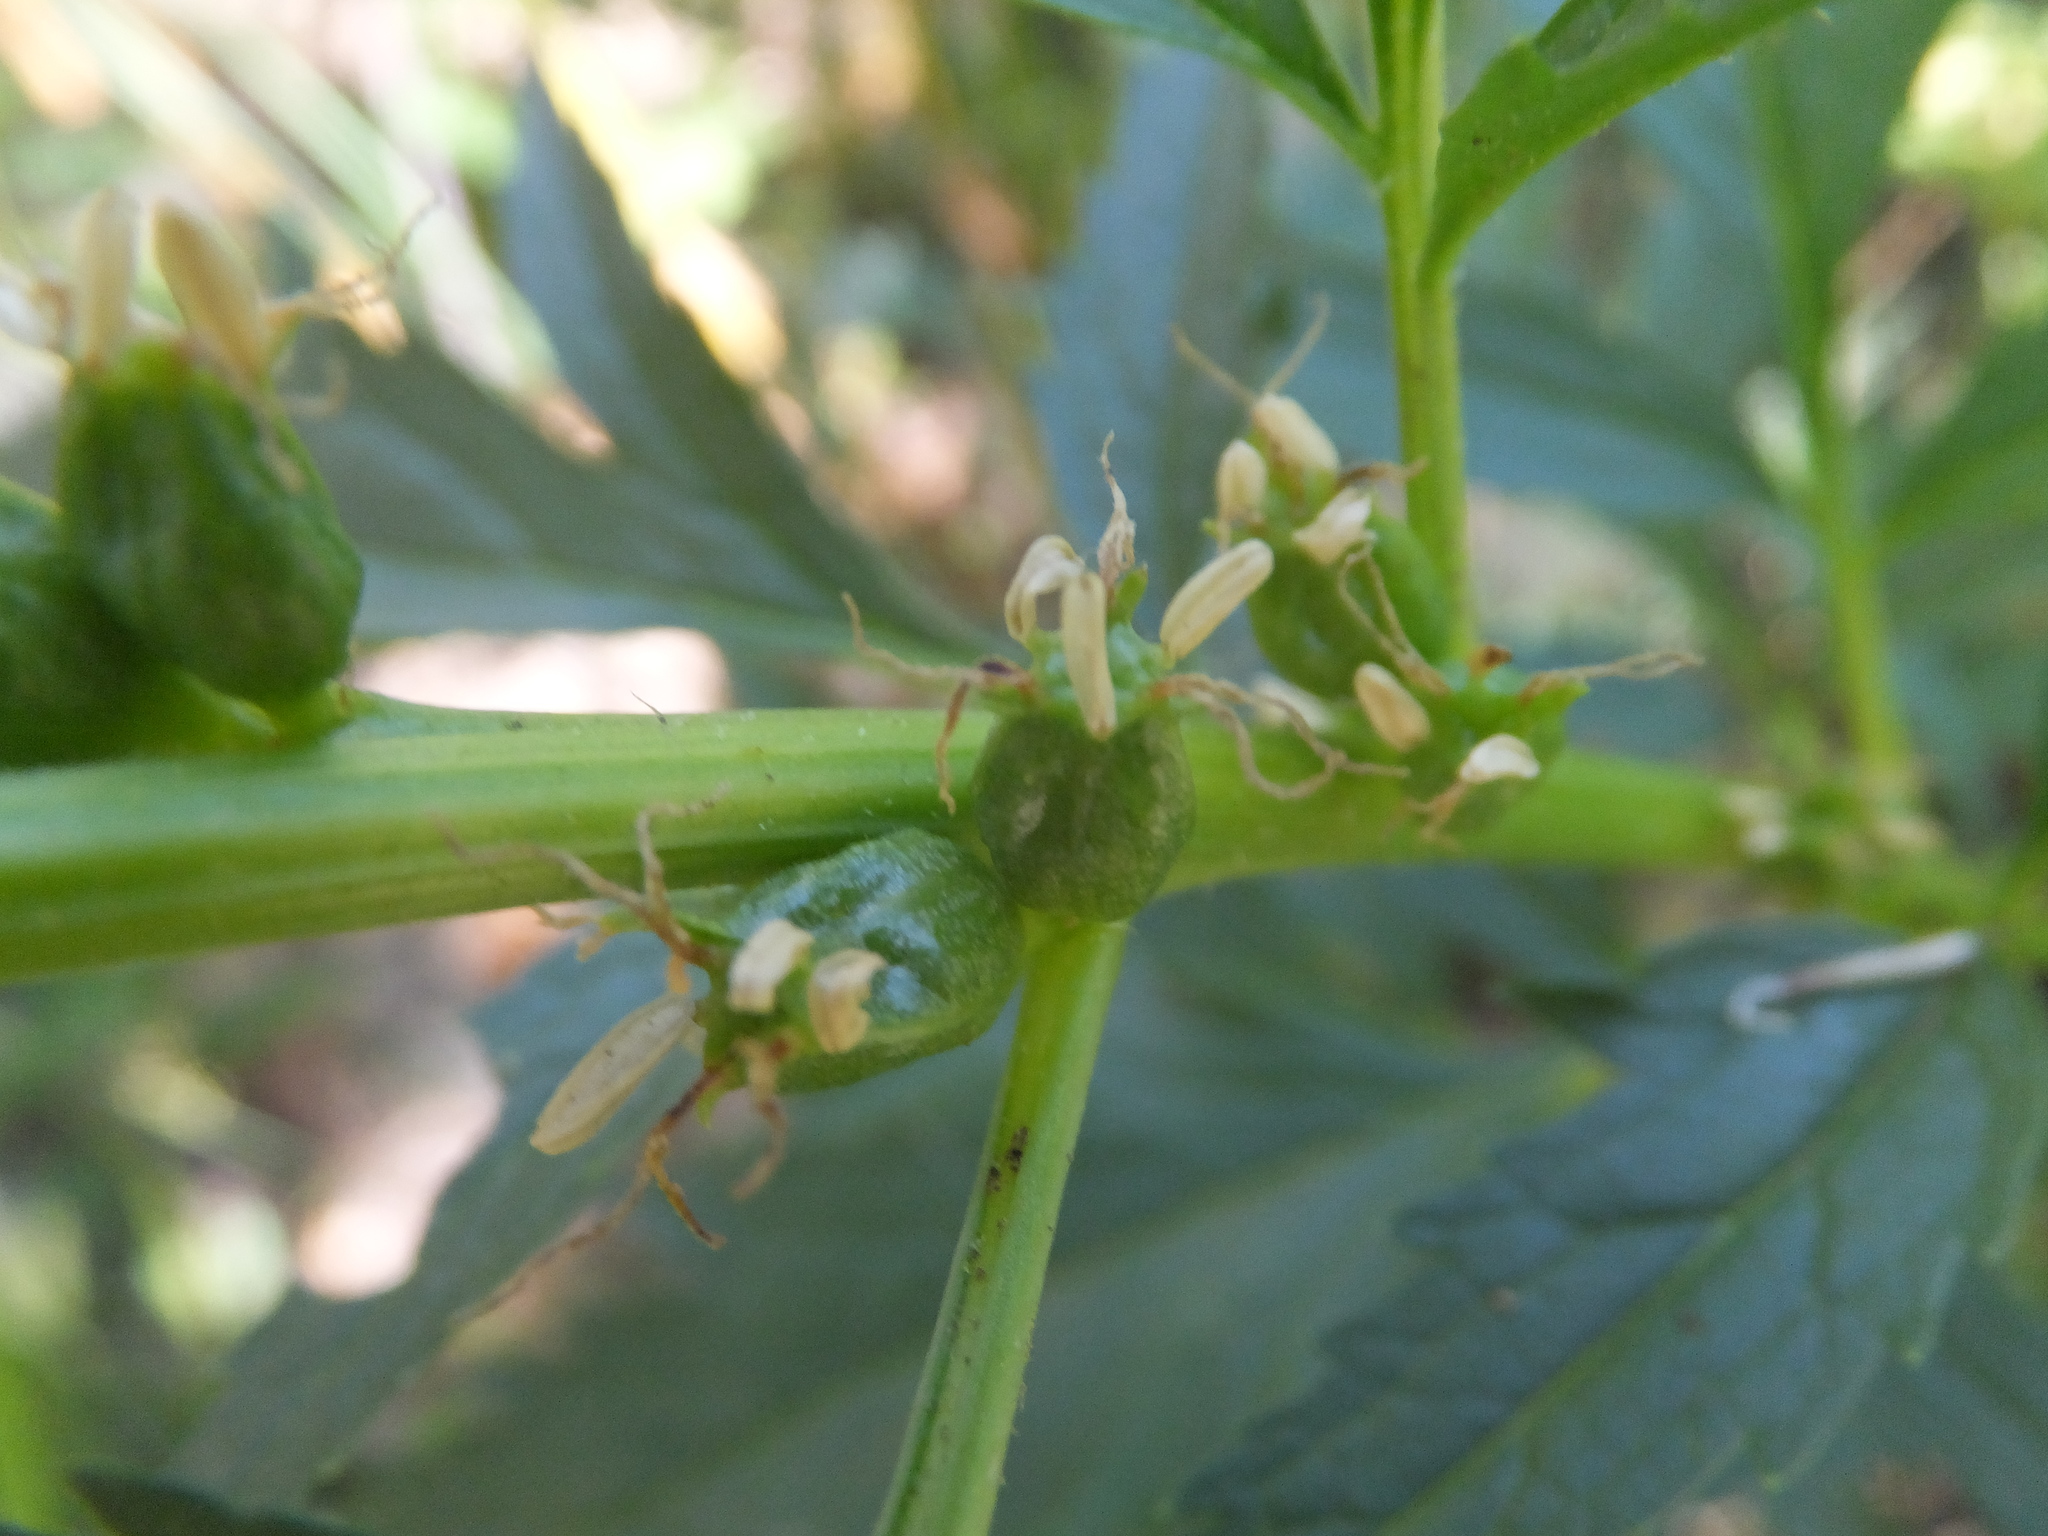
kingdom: Plantae
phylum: Tracheophyta
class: Magnoliopsida
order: Cucurbitales
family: Datiscaceae
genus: Datisca
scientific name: Datisca glomerata
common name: Durango-root
